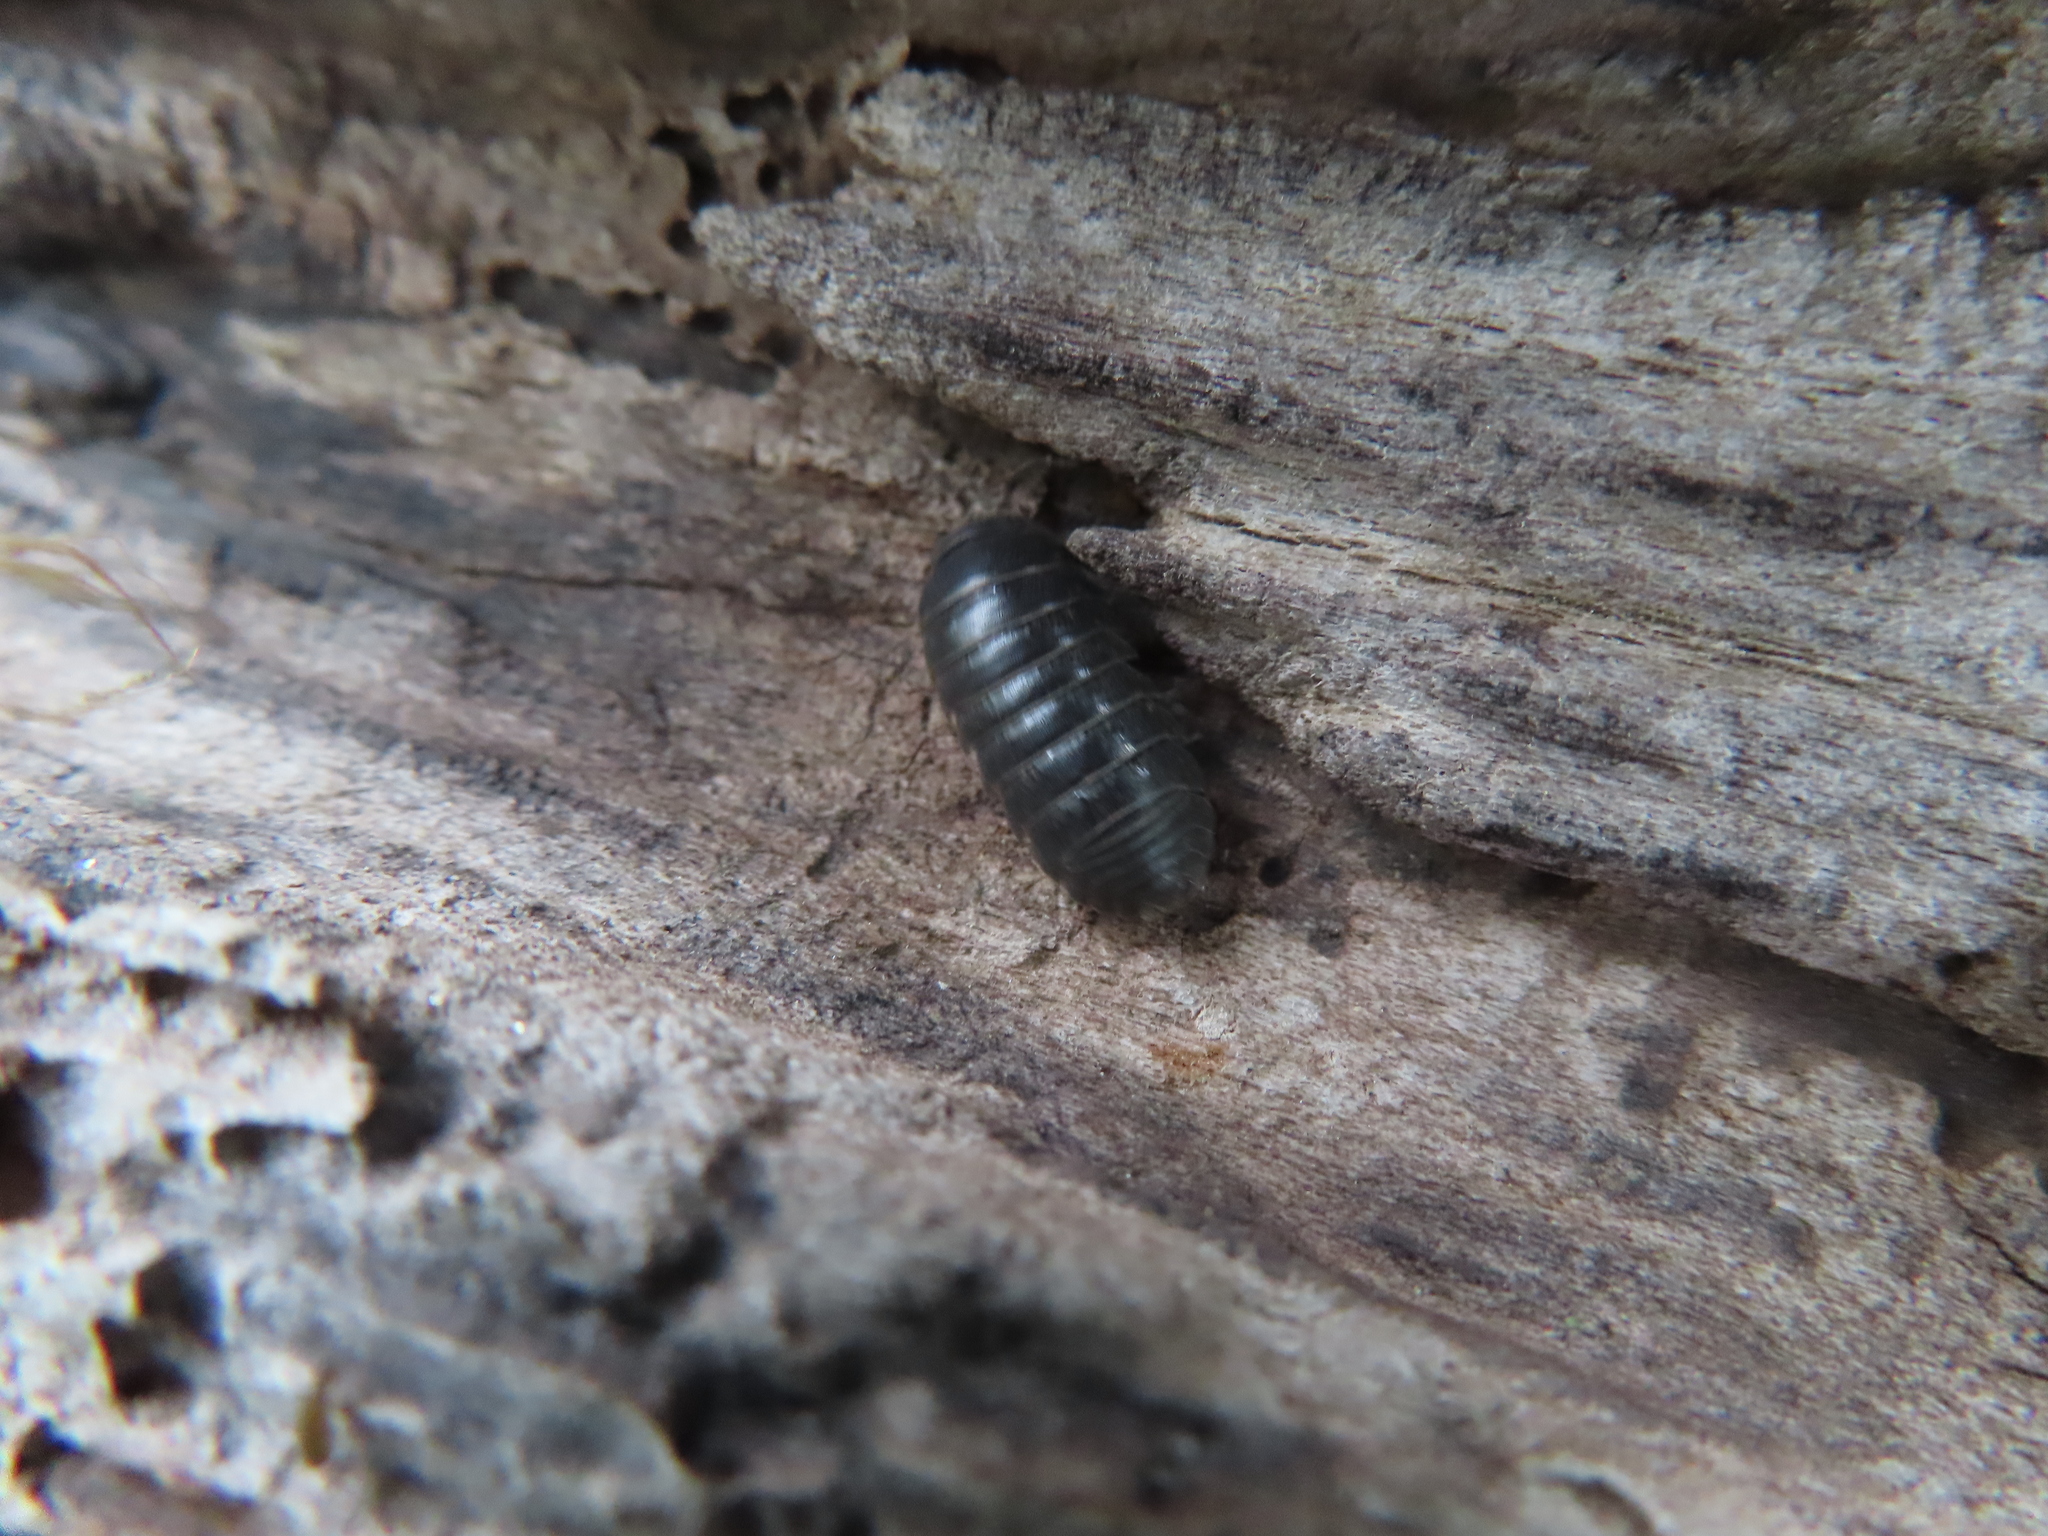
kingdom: Animalia
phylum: Arthropoda
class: Malacostraca
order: Isopoda
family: Armadillidiidae
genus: Armadillidium
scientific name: Armadillidium vulgare
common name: Common pill woodlouse
